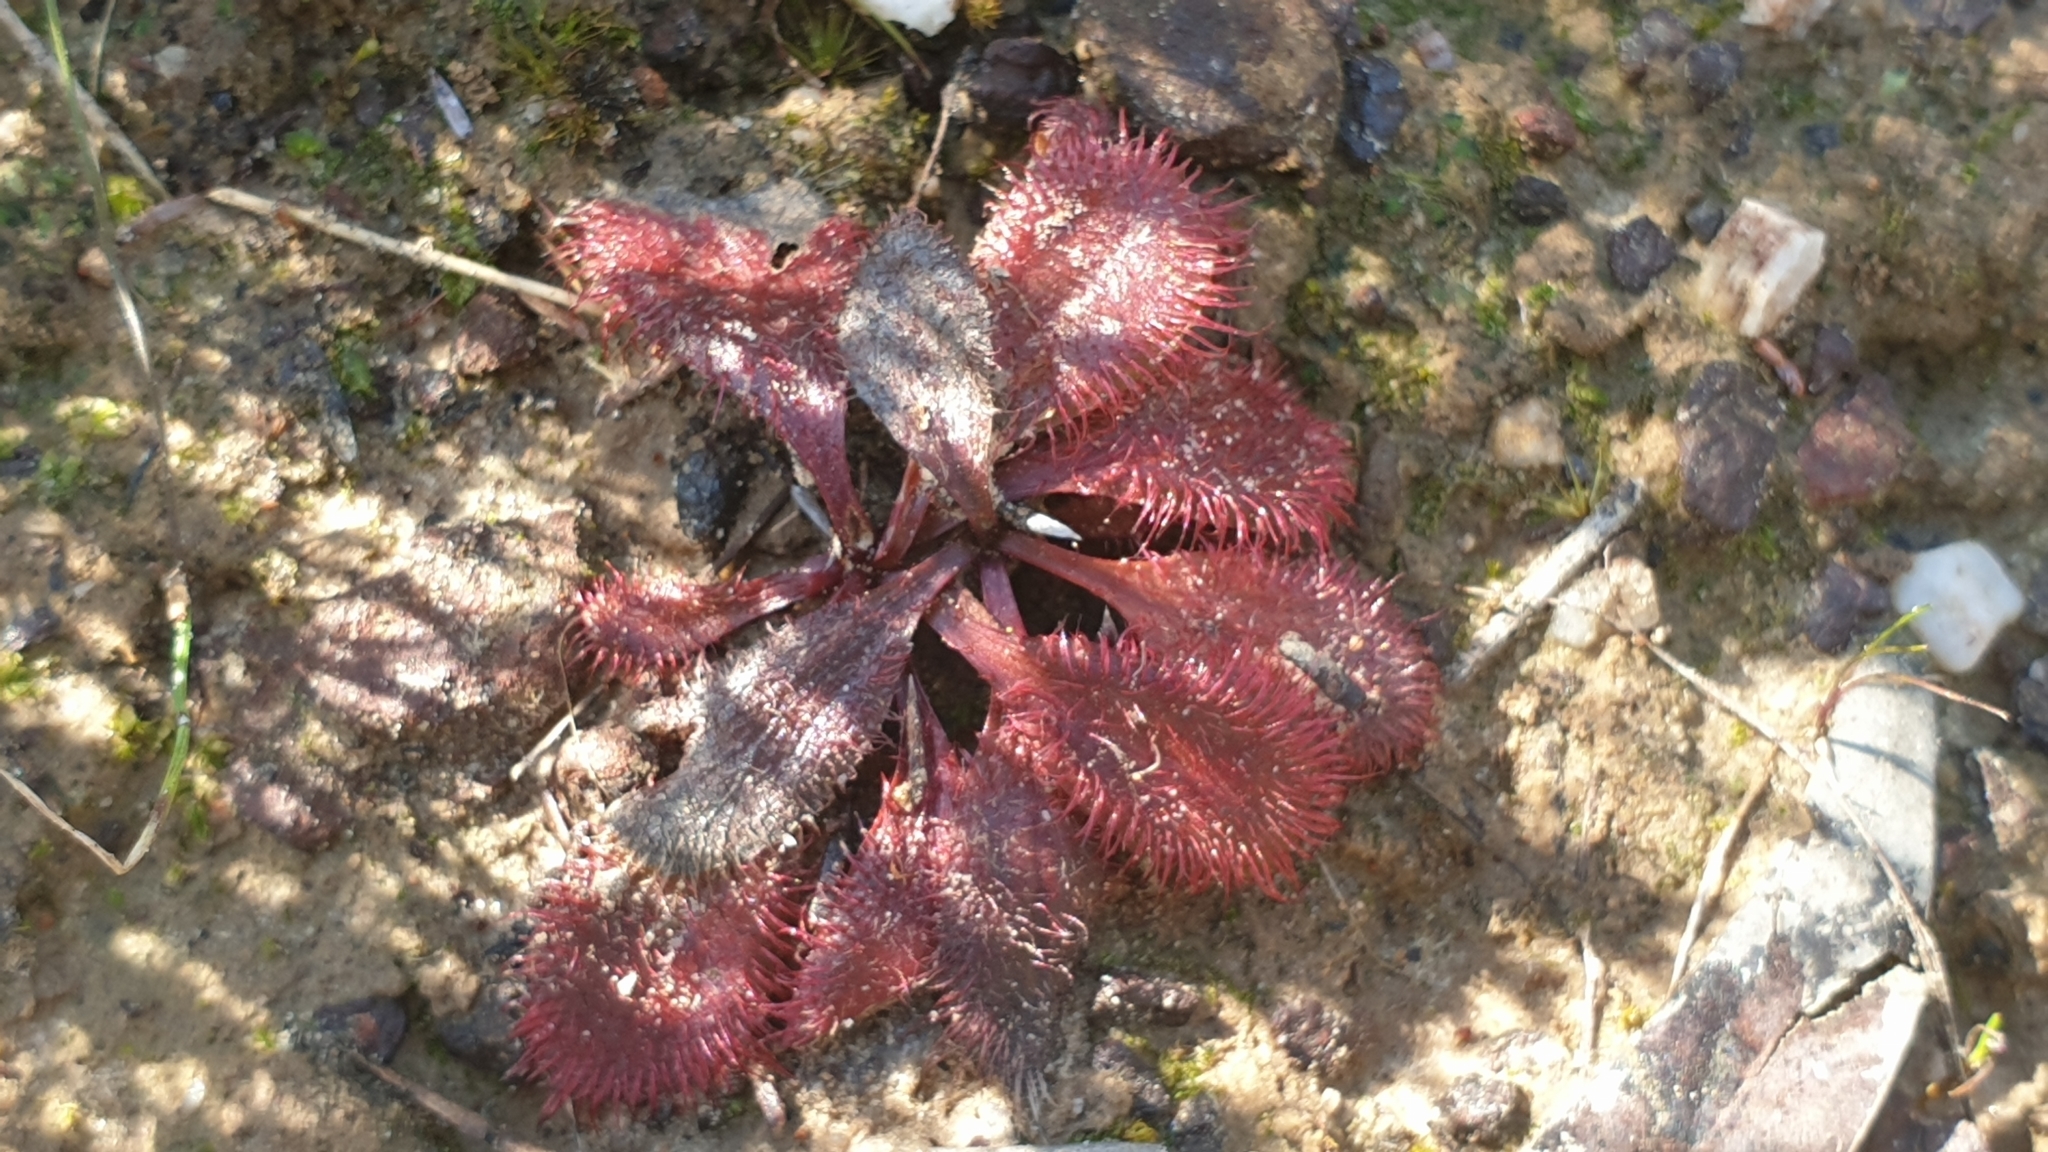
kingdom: Plantae
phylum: Tracheophyta
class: Magnoliopsida
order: Caryophyllales
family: Droseraceae
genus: Drosera
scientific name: Drosera praefolia
